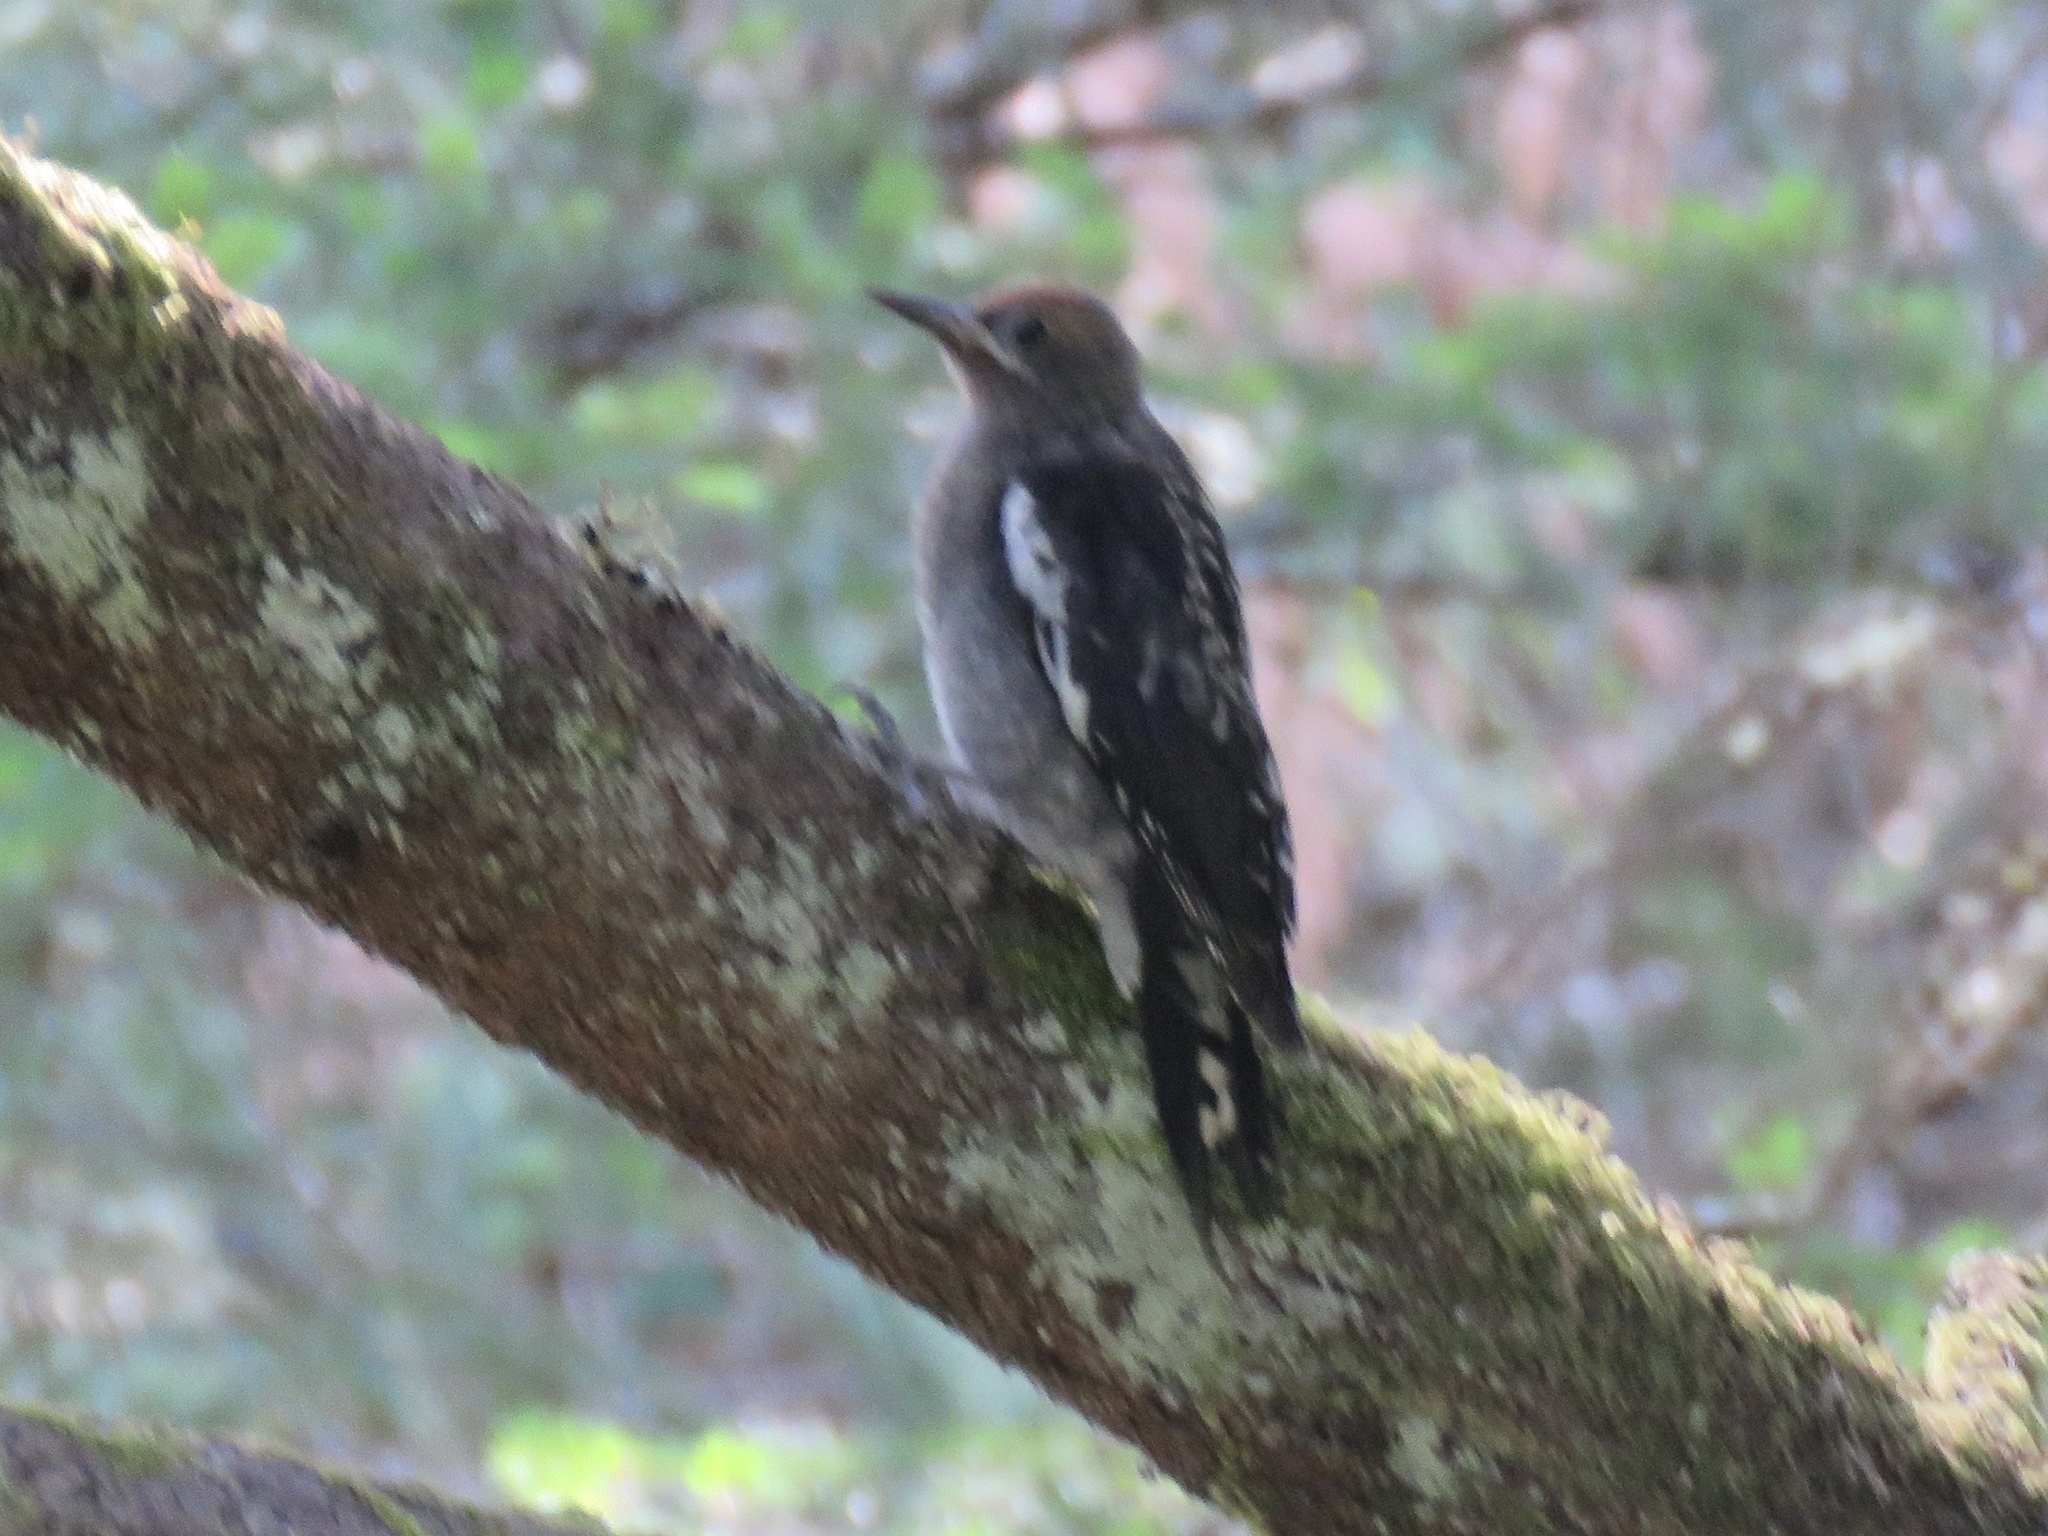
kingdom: Animalia
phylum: Chordata
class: Aves
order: Piciformes
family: Picidae
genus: Sphyrapicus
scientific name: Sphyrapicus ruber
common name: Red-breasted sapsucker
